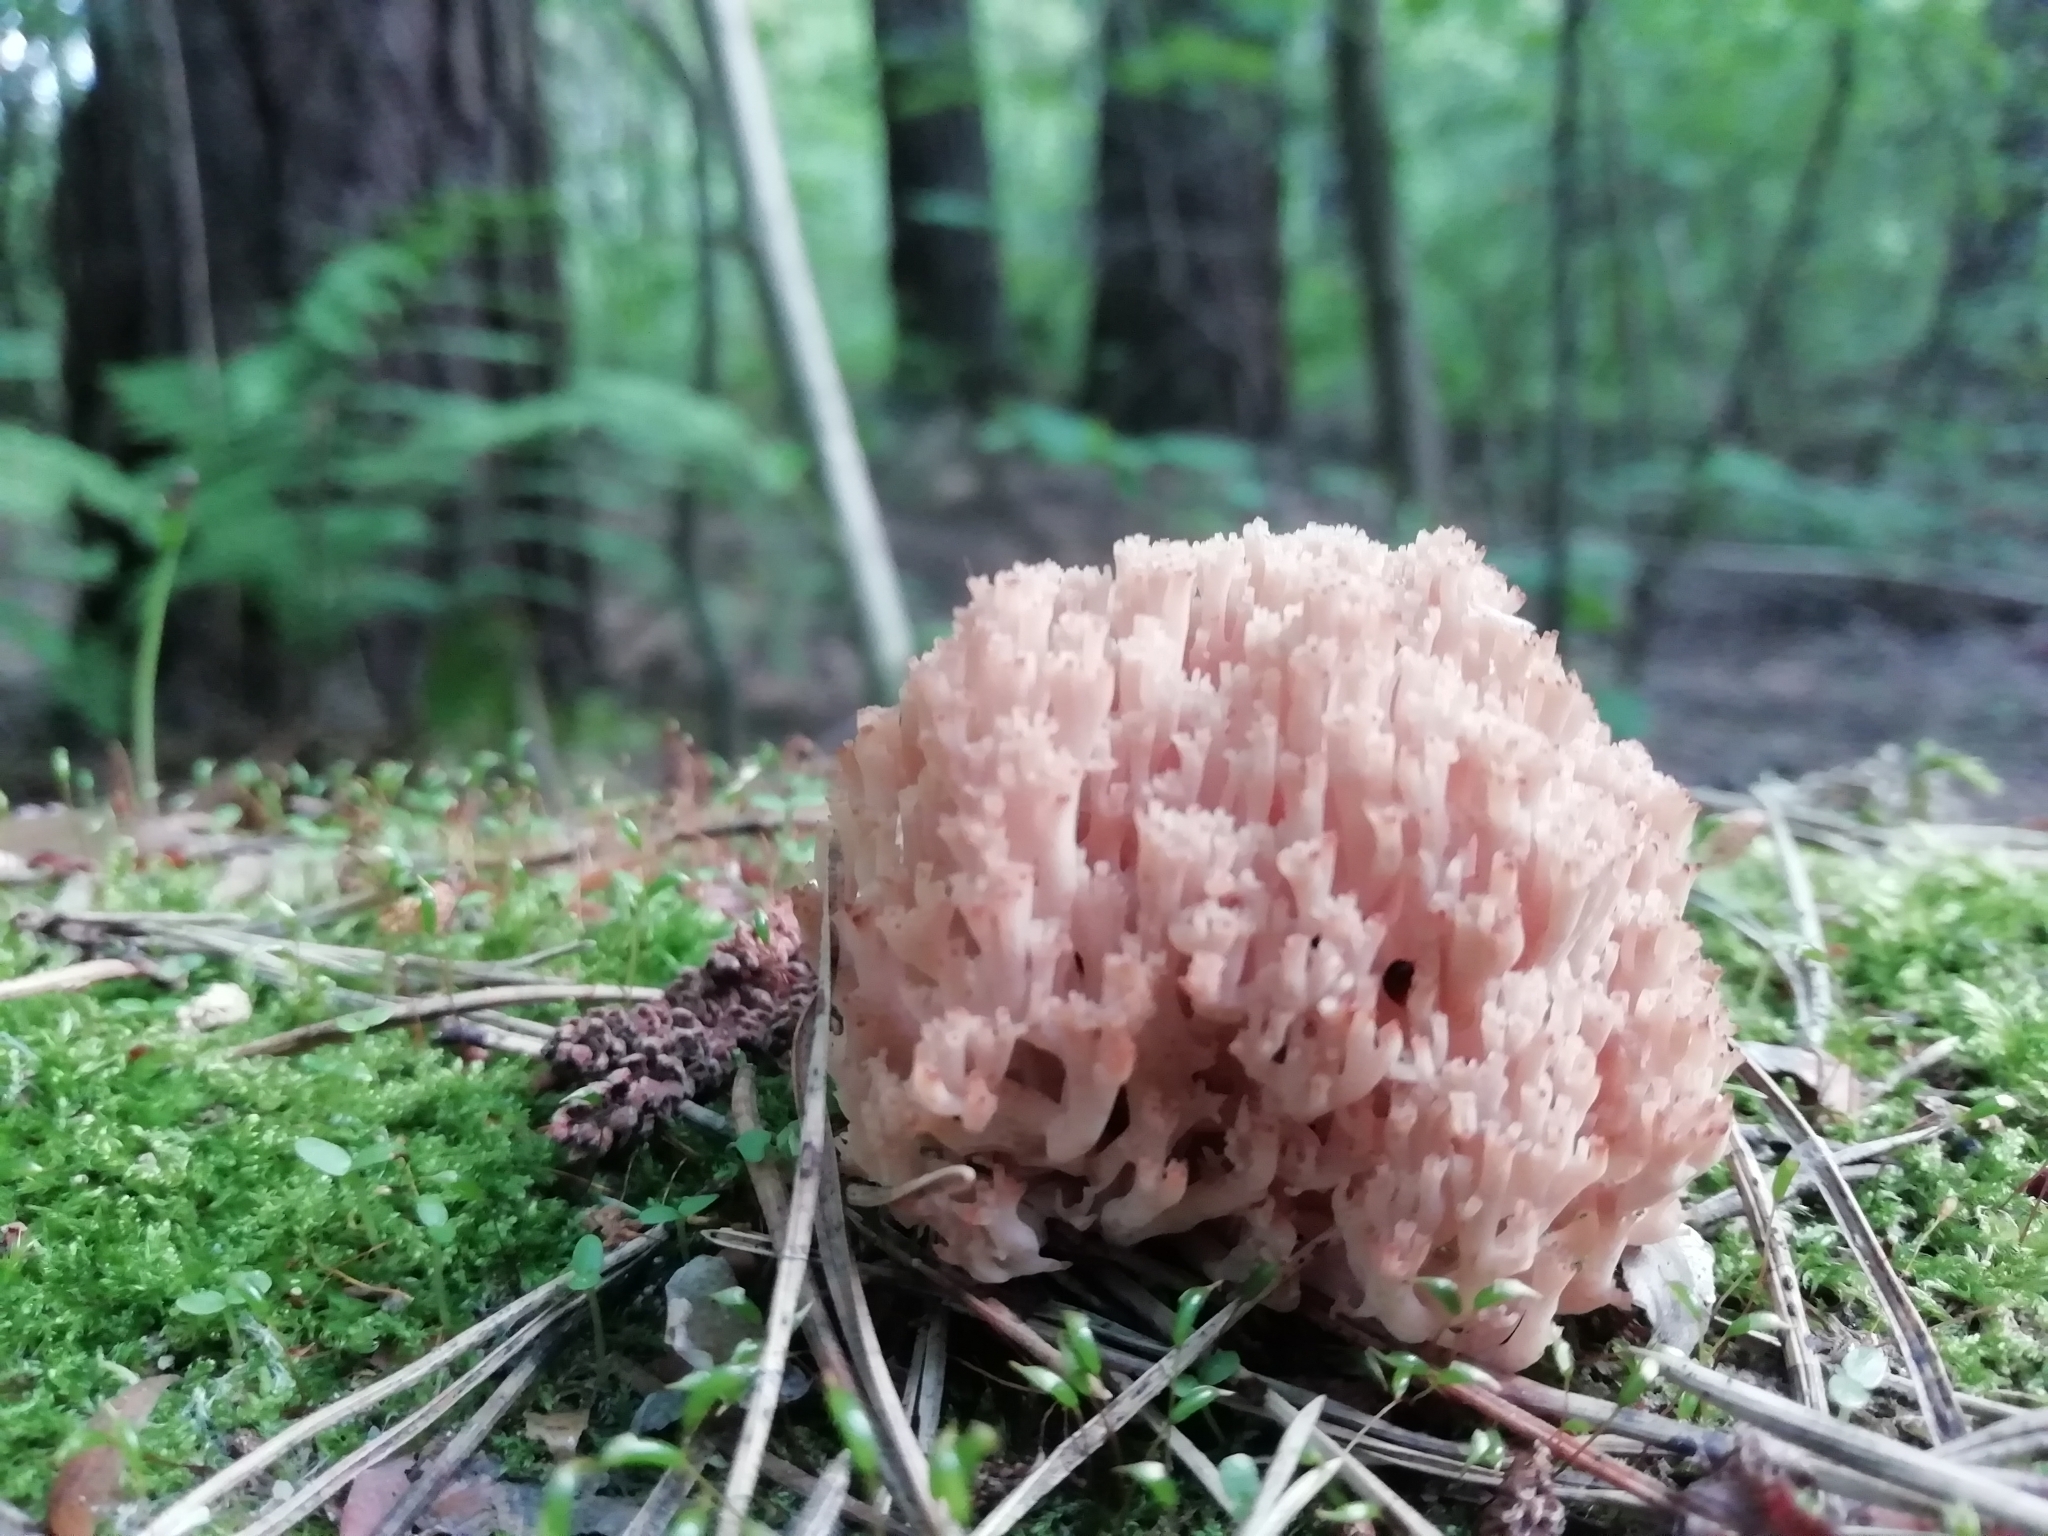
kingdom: Fungi
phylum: Basidiomycota
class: Agaricomycetes
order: Russulales
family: Auriscalpiaceae
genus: Artomyces
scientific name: Artomyces pyxidatus
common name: Crown-tipped coral fungus
